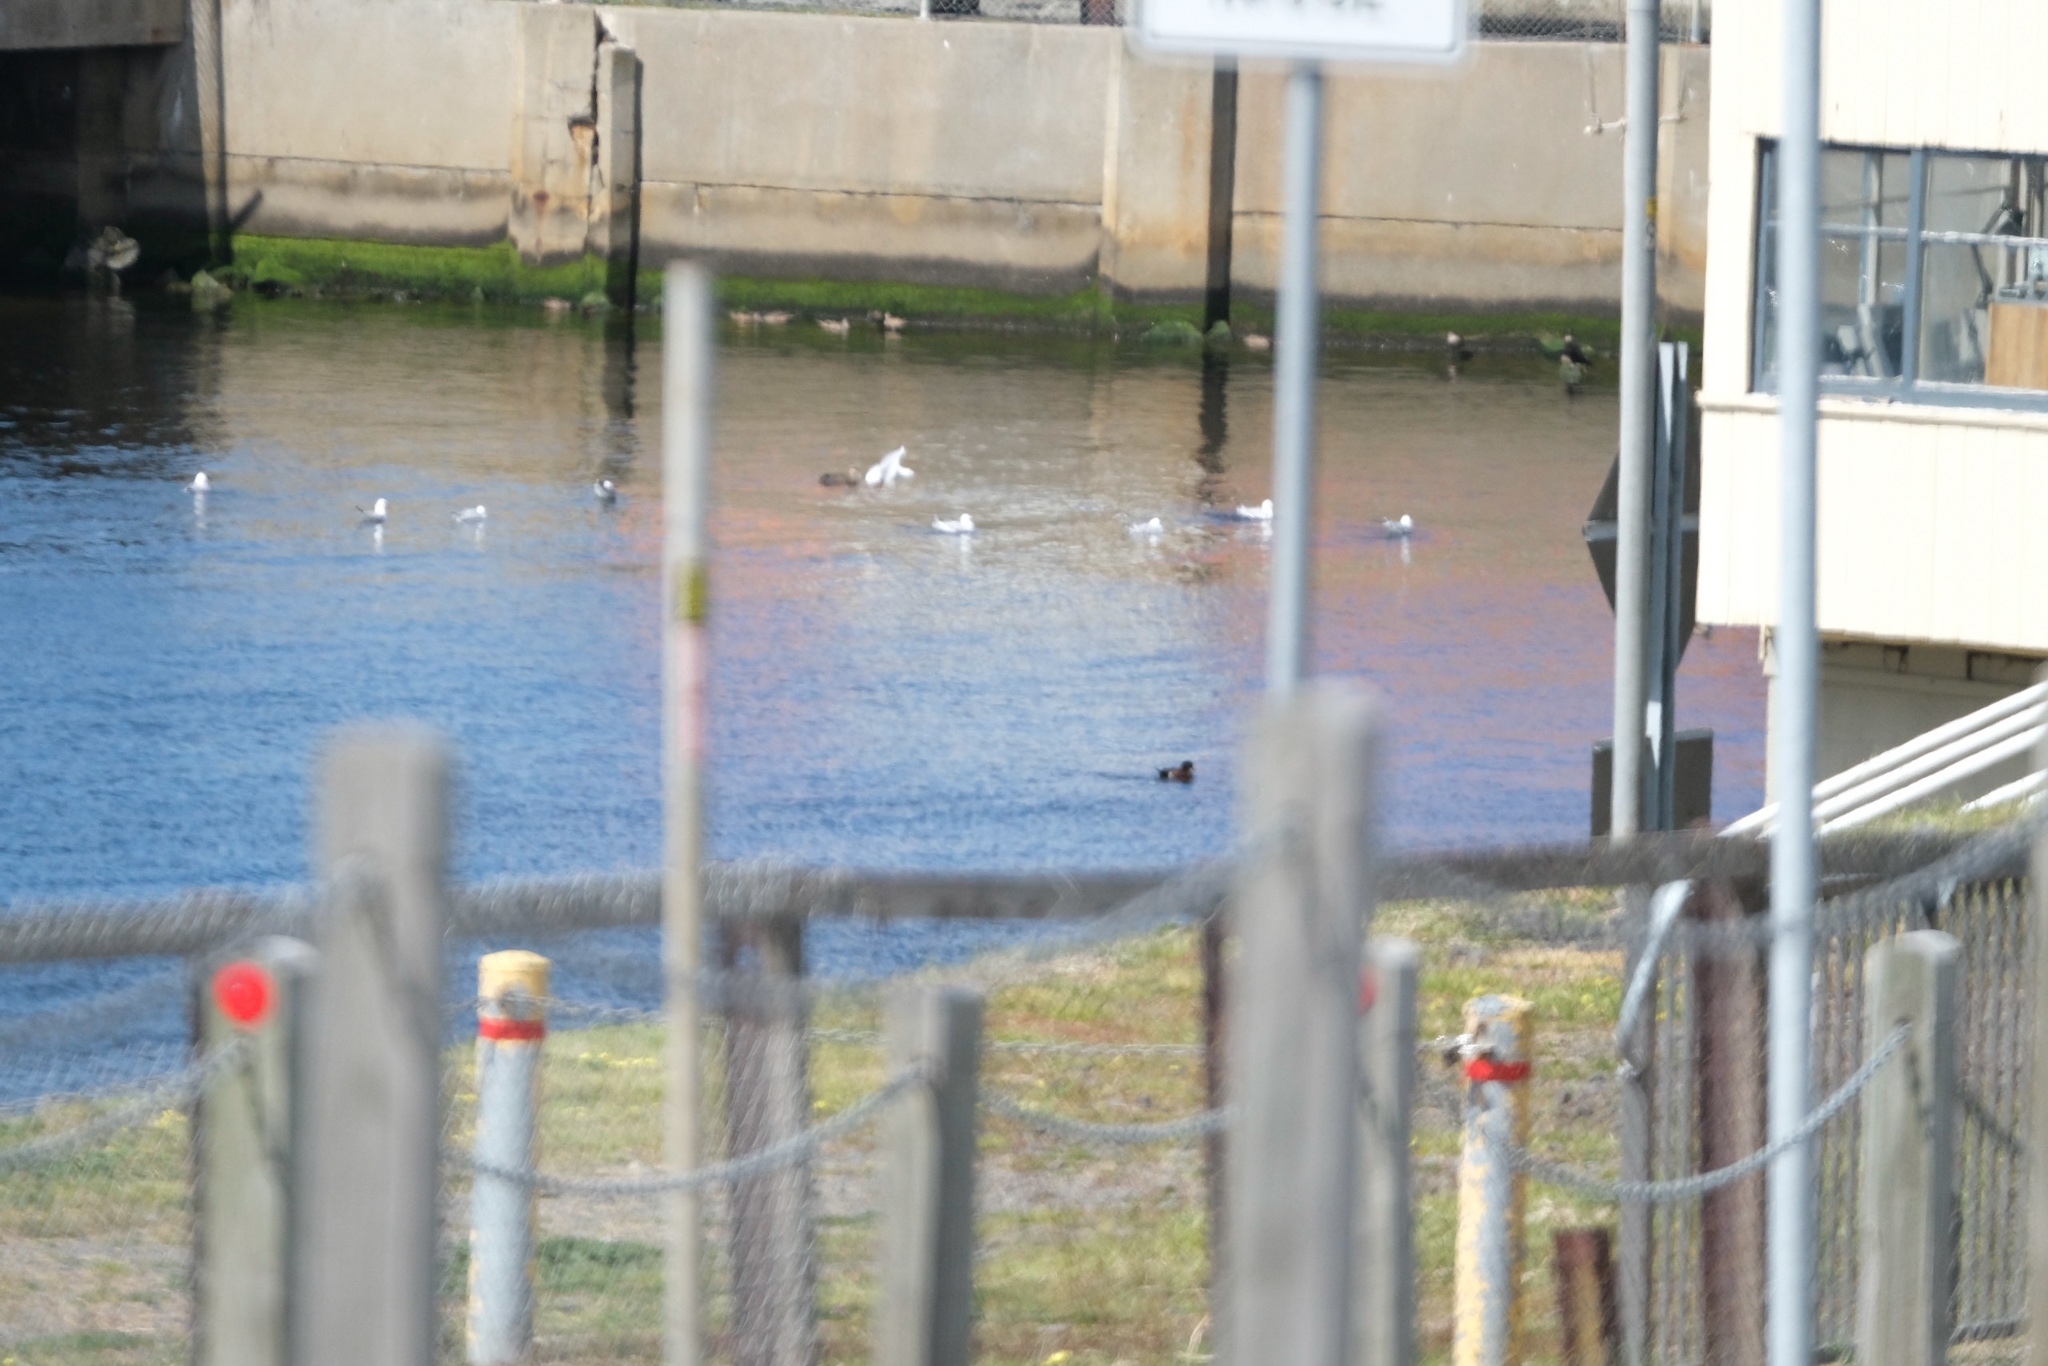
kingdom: Animalia
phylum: Chordata
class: Aves
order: Anseriformes
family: Anatidae
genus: Anas
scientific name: Anas castanea
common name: Chestnut teal
